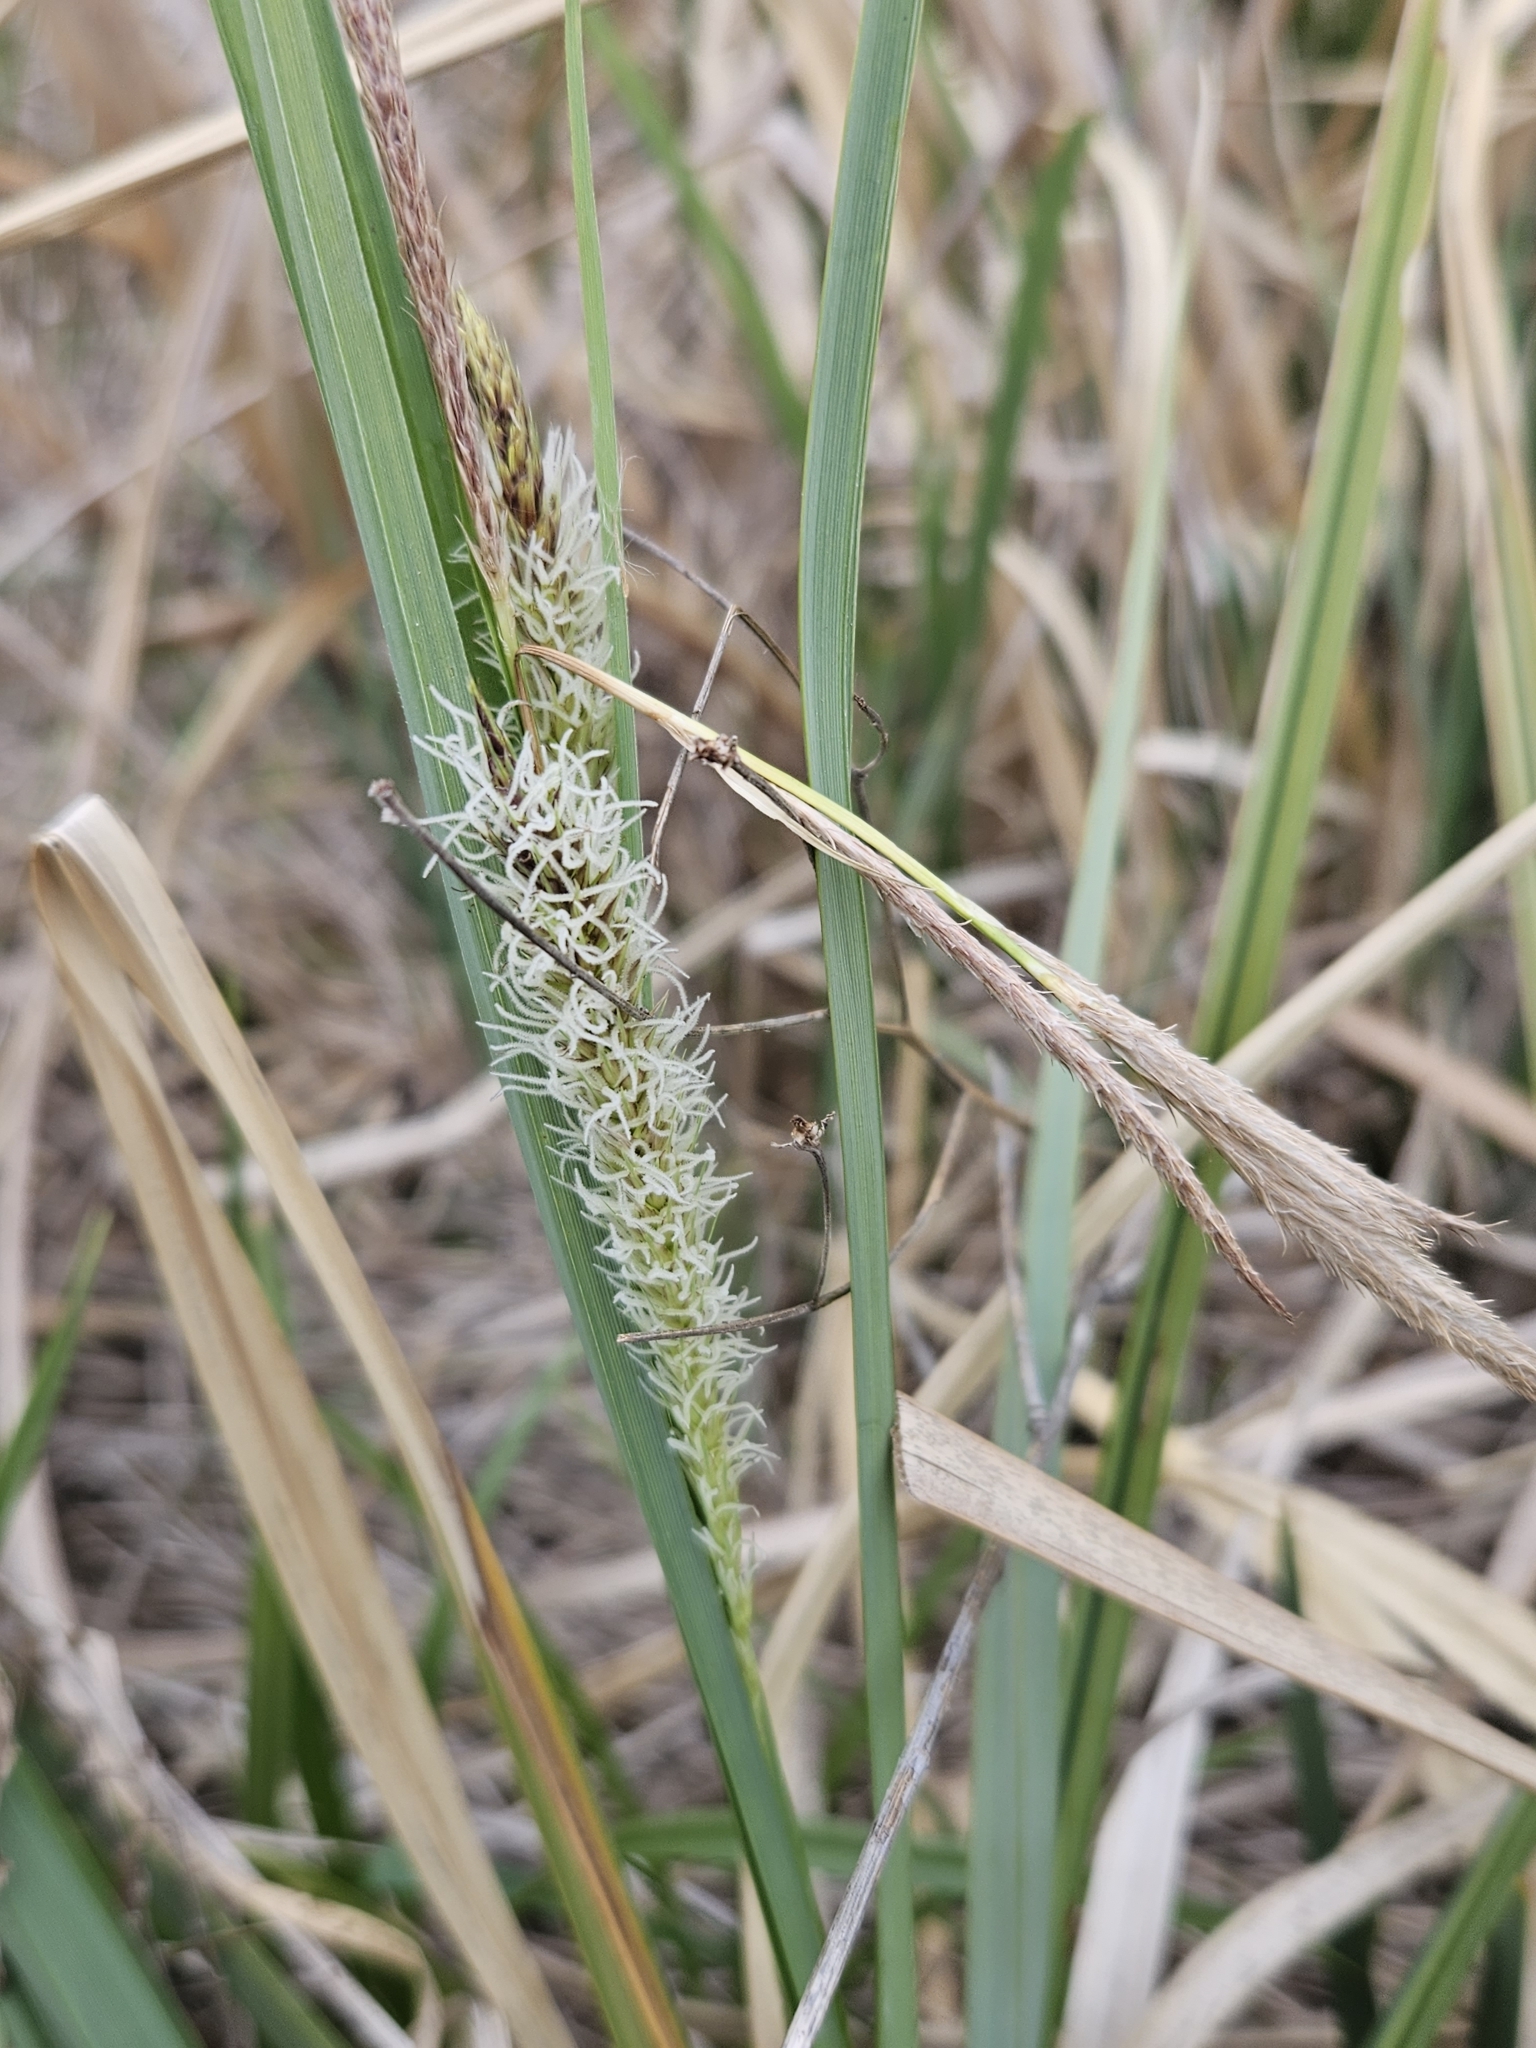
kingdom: Plantae
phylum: Tracheophyta
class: Liliopsida
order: Poales
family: Cyperaceae
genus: Carex
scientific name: Carex hyalinolepis
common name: Shoreline sedge
